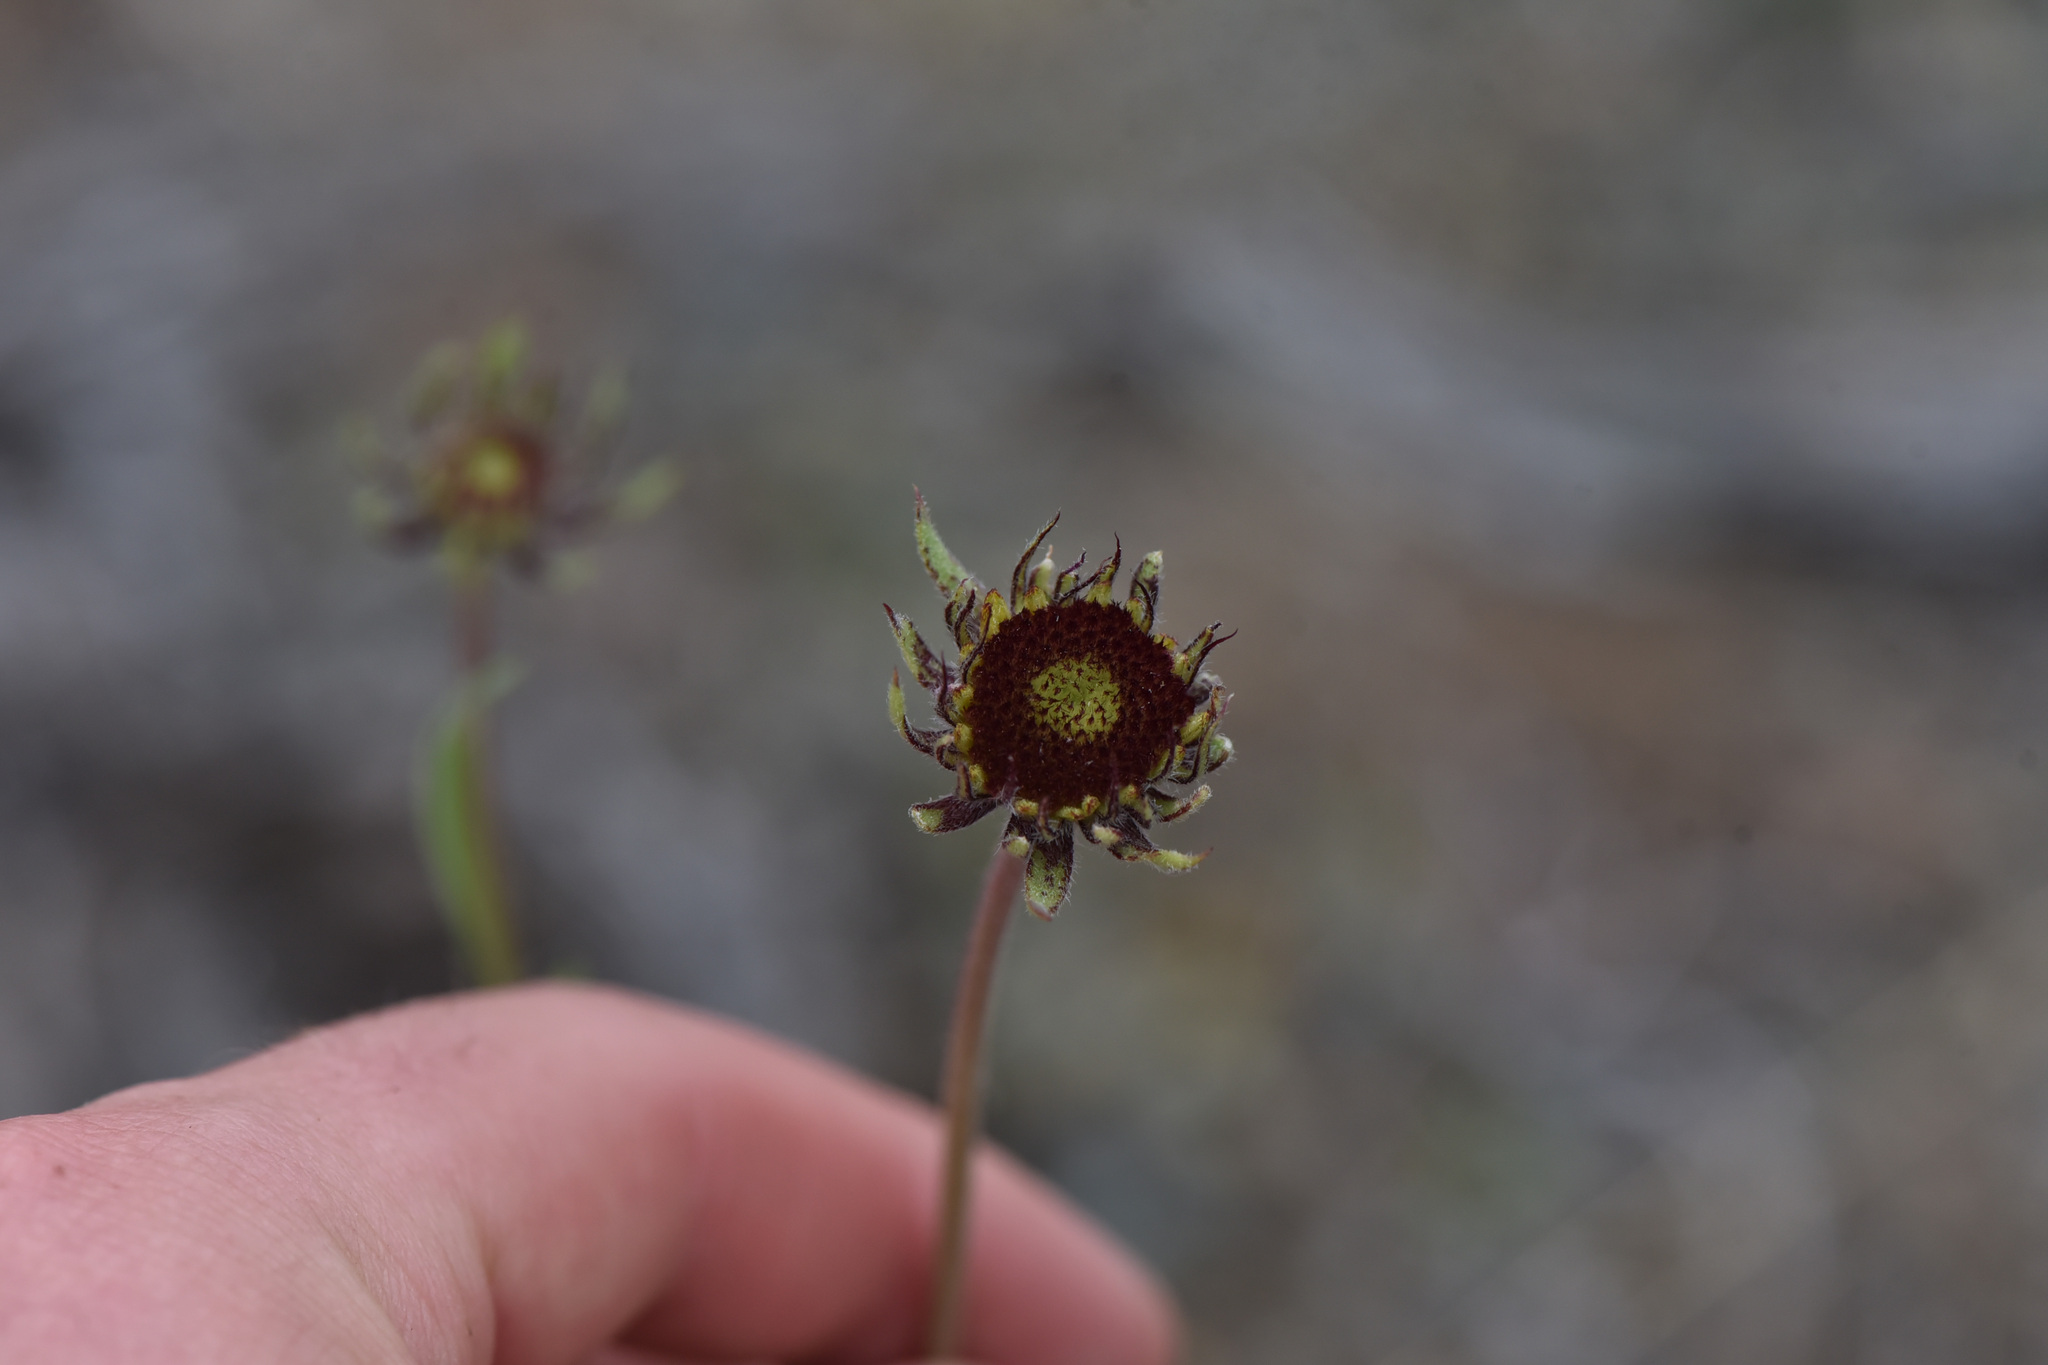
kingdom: Plantae
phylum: Tracheophyta
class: Magnoliopsida
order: Asterales
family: Asteraceae
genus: Gaillardia
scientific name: Gaillardia aristata
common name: Blanket-flower
